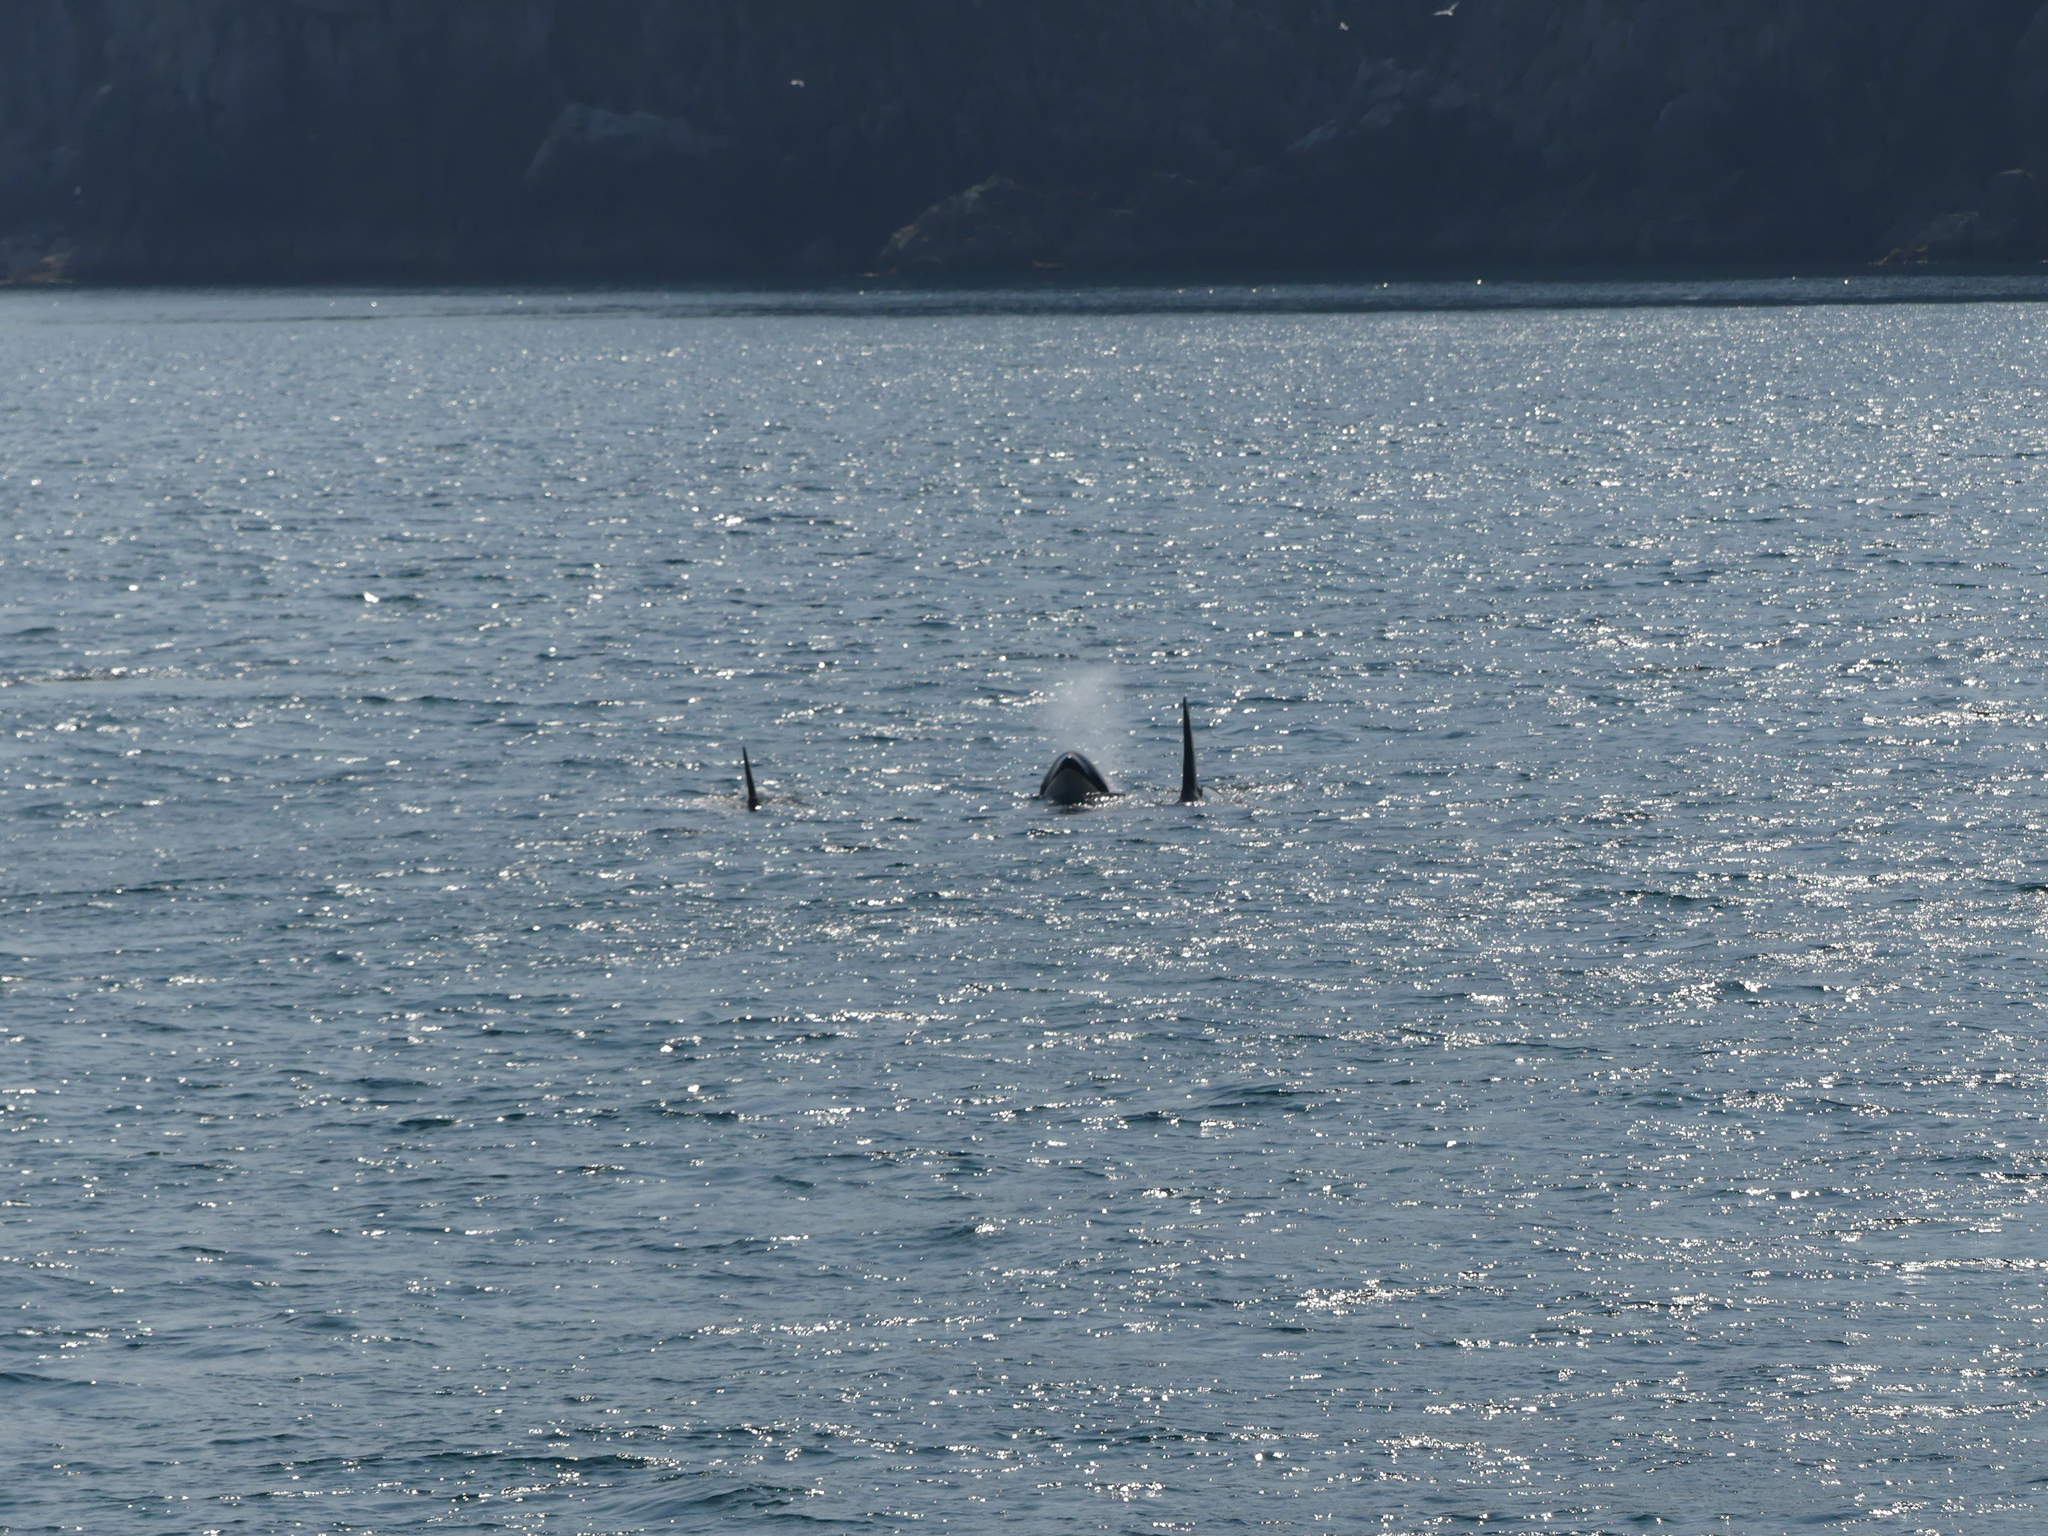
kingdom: Animalia
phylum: Chordata
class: Mammalia
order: Cetacea
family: Delphinidae
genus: Orcinus
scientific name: Orcinus orca
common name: Killer whale
